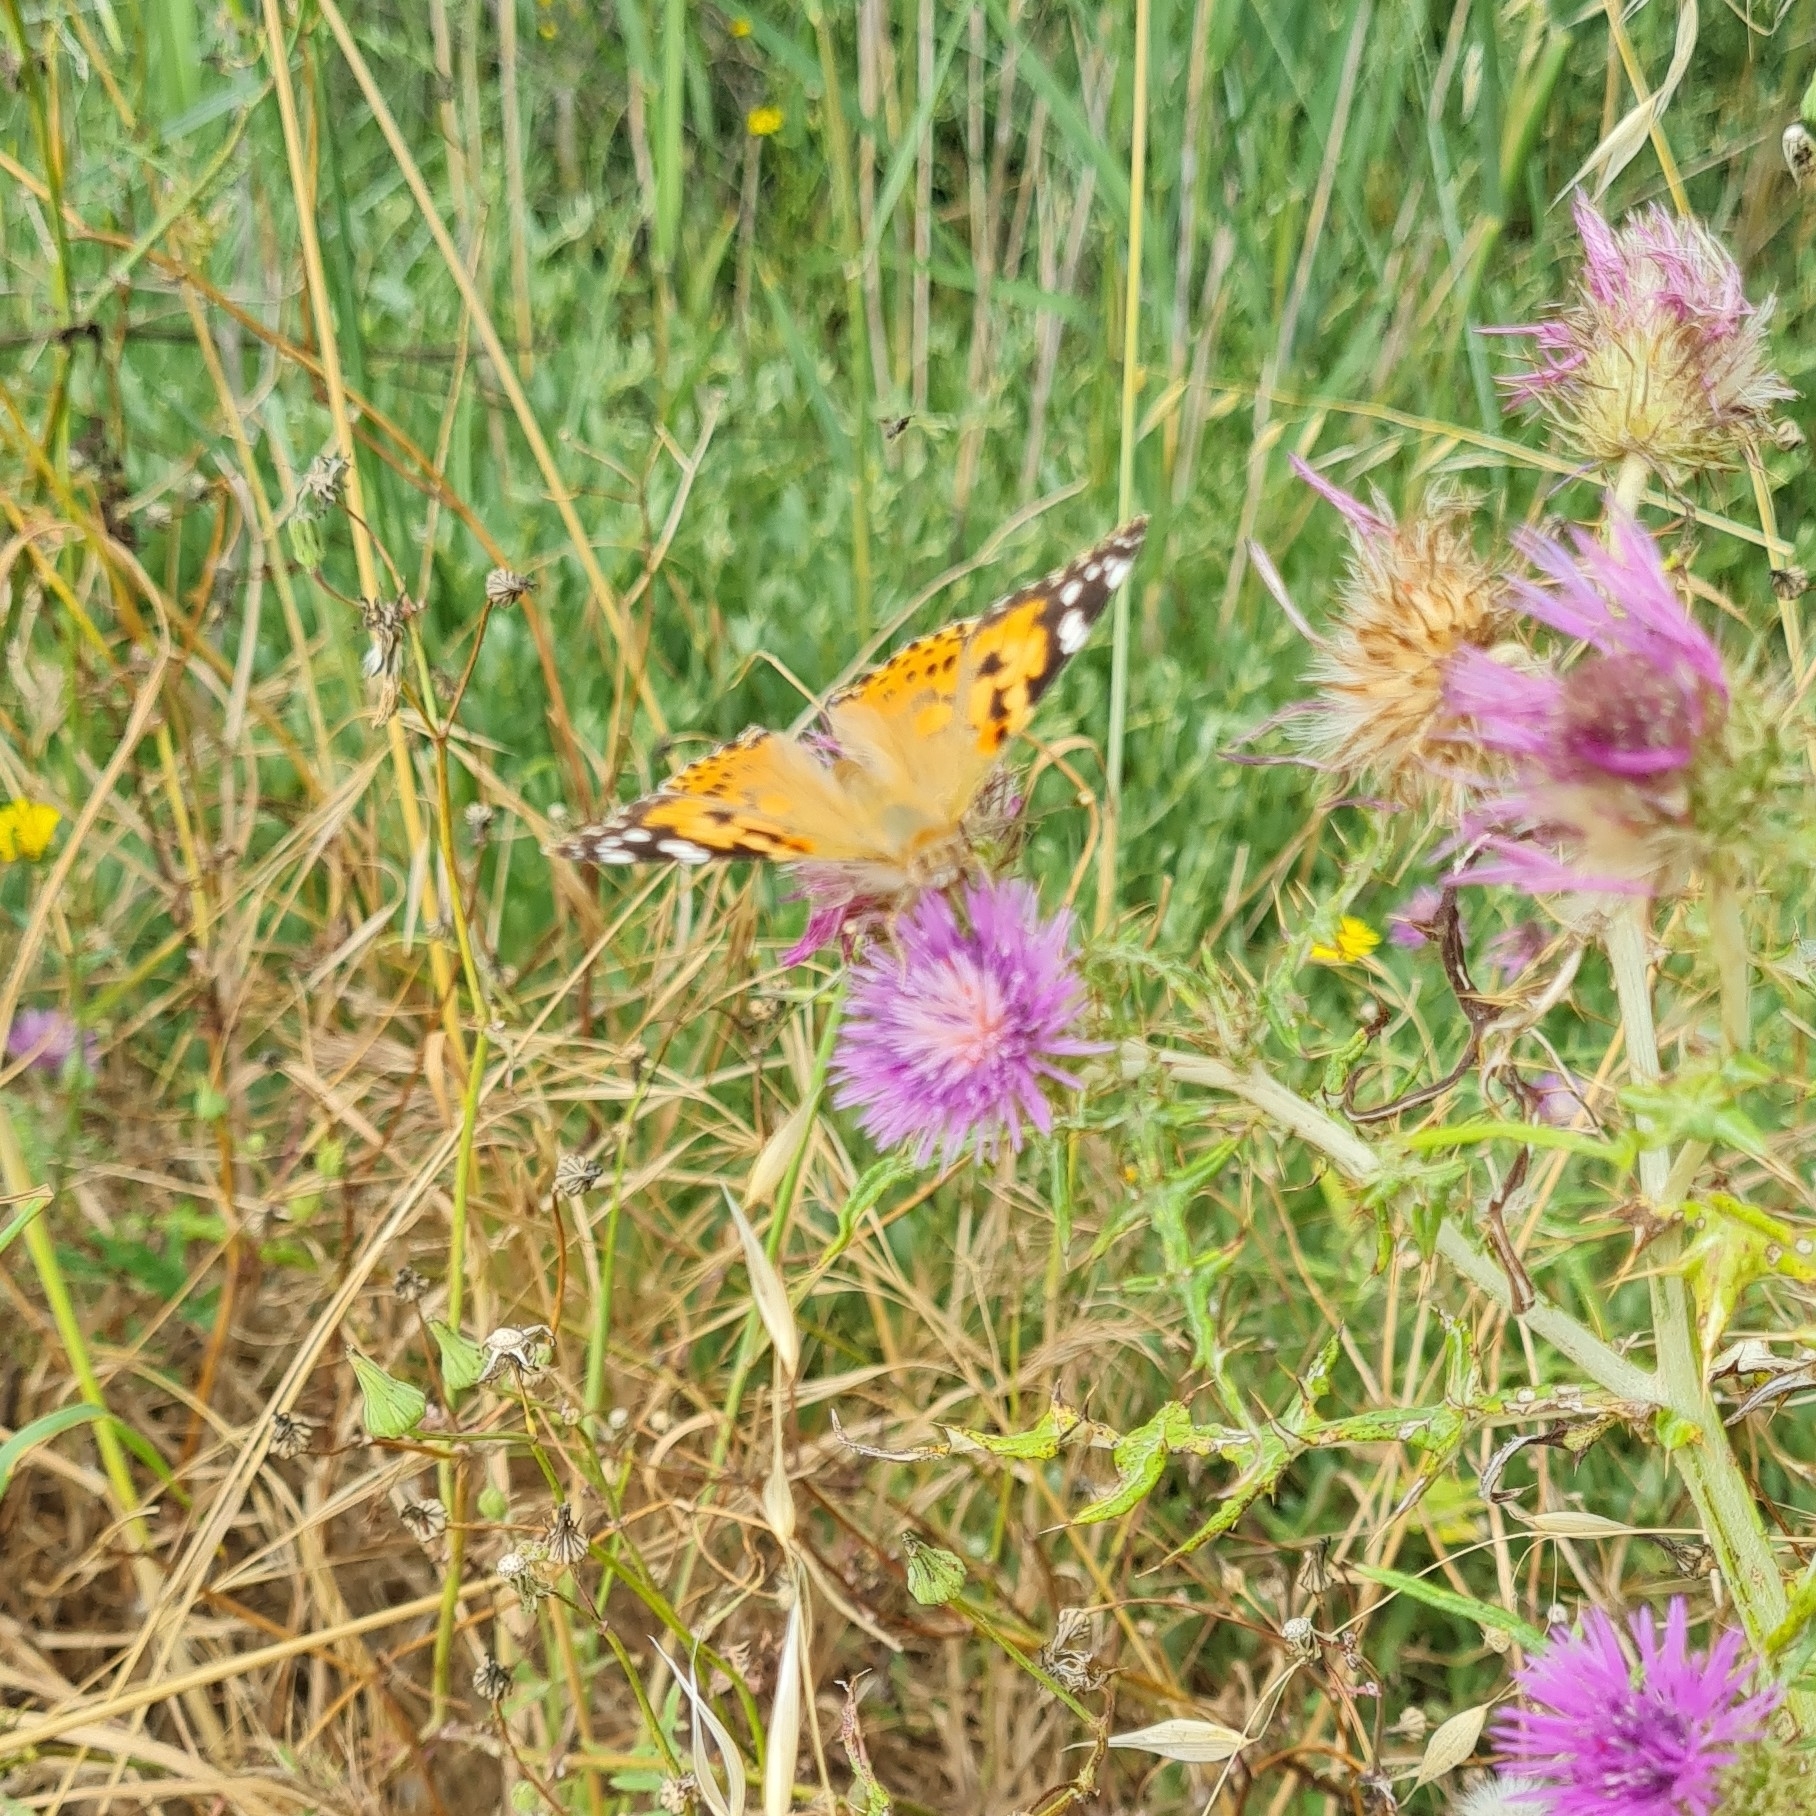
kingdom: Animalia
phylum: Arthropoda
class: Insecta
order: Lepidoptera
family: Nymphalidae
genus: Vanessa
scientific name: Vanessa cardui
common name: Painted lady
